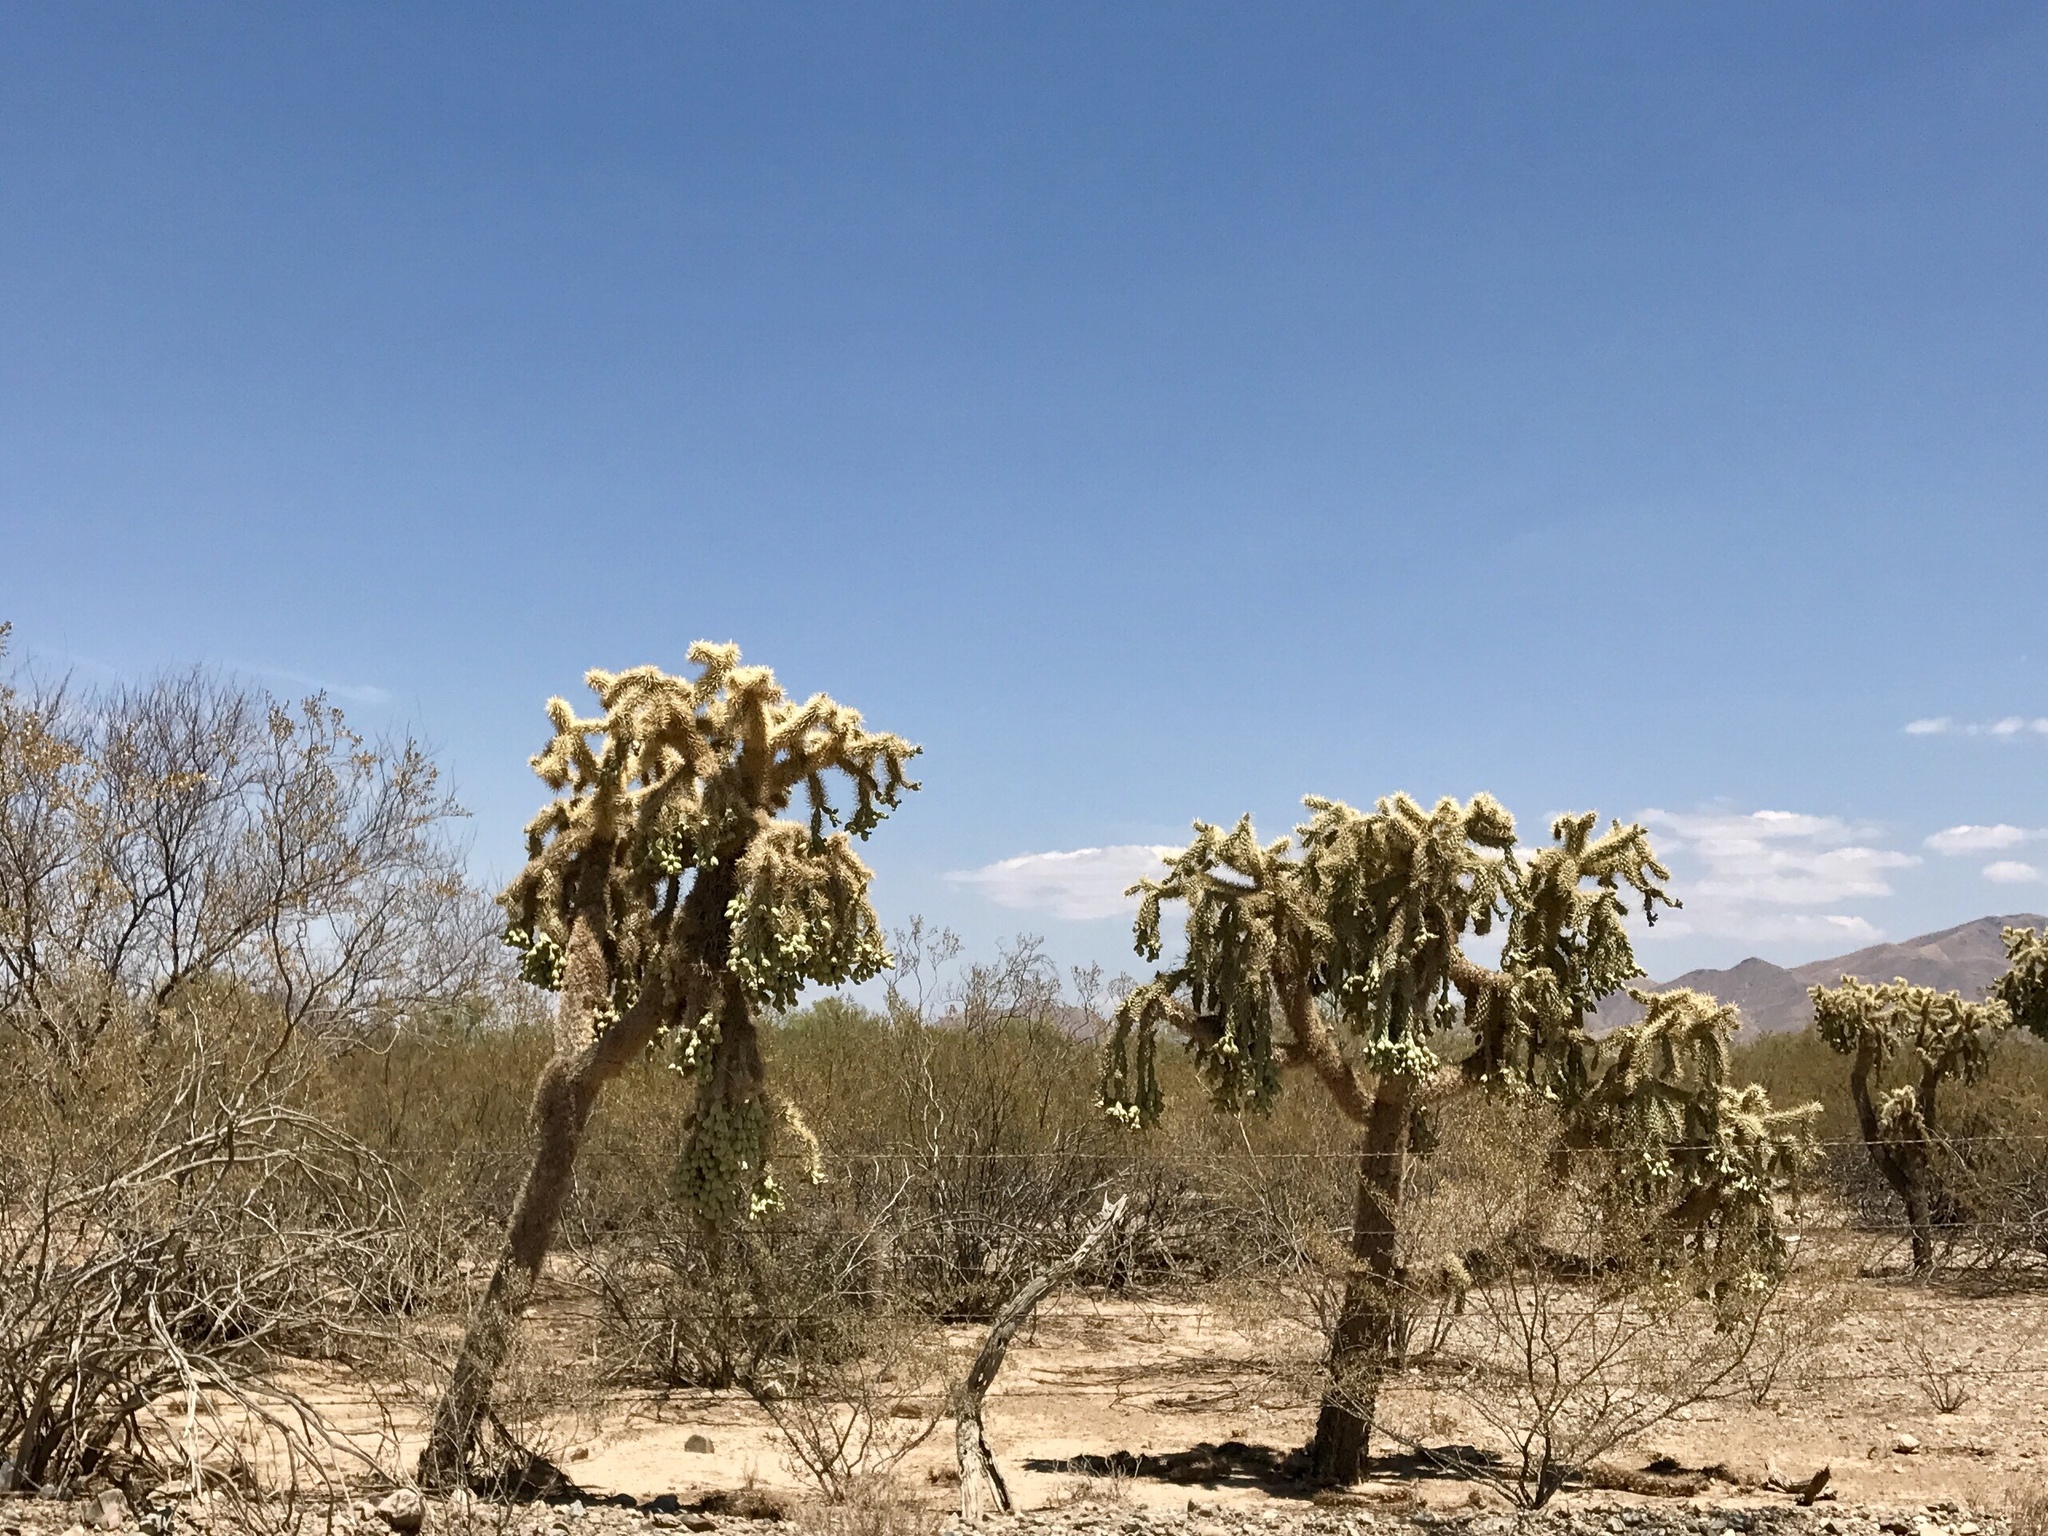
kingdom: Plantae
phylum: Tracheophyta
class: Magnoliopsida
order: Caryophyllales
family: Cactaceae
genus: Cylindropuntia
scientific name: Cylindropuntia fulgida
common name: Jumping cholla
